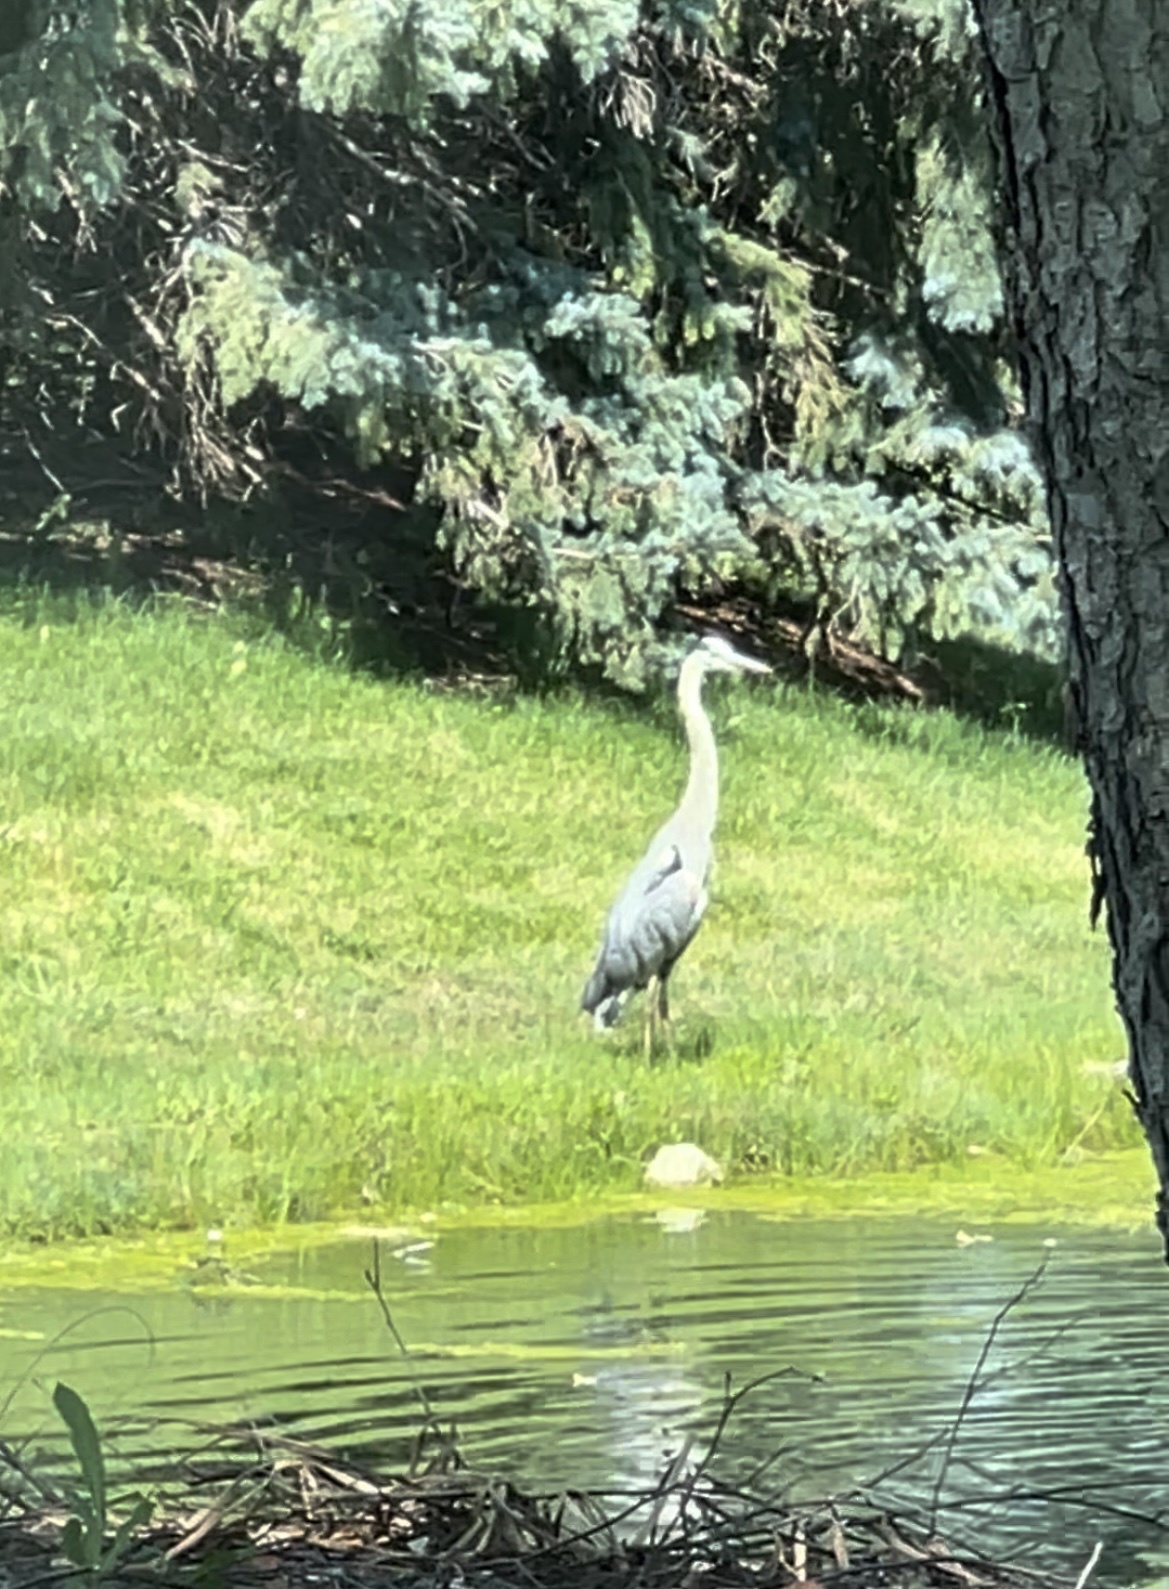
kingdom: Animalia
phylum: Chordata
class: Aves
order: Pelecaniformes
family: Ardeidae
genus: Ardea
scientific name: Ardea herodias
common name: Great blue heron
